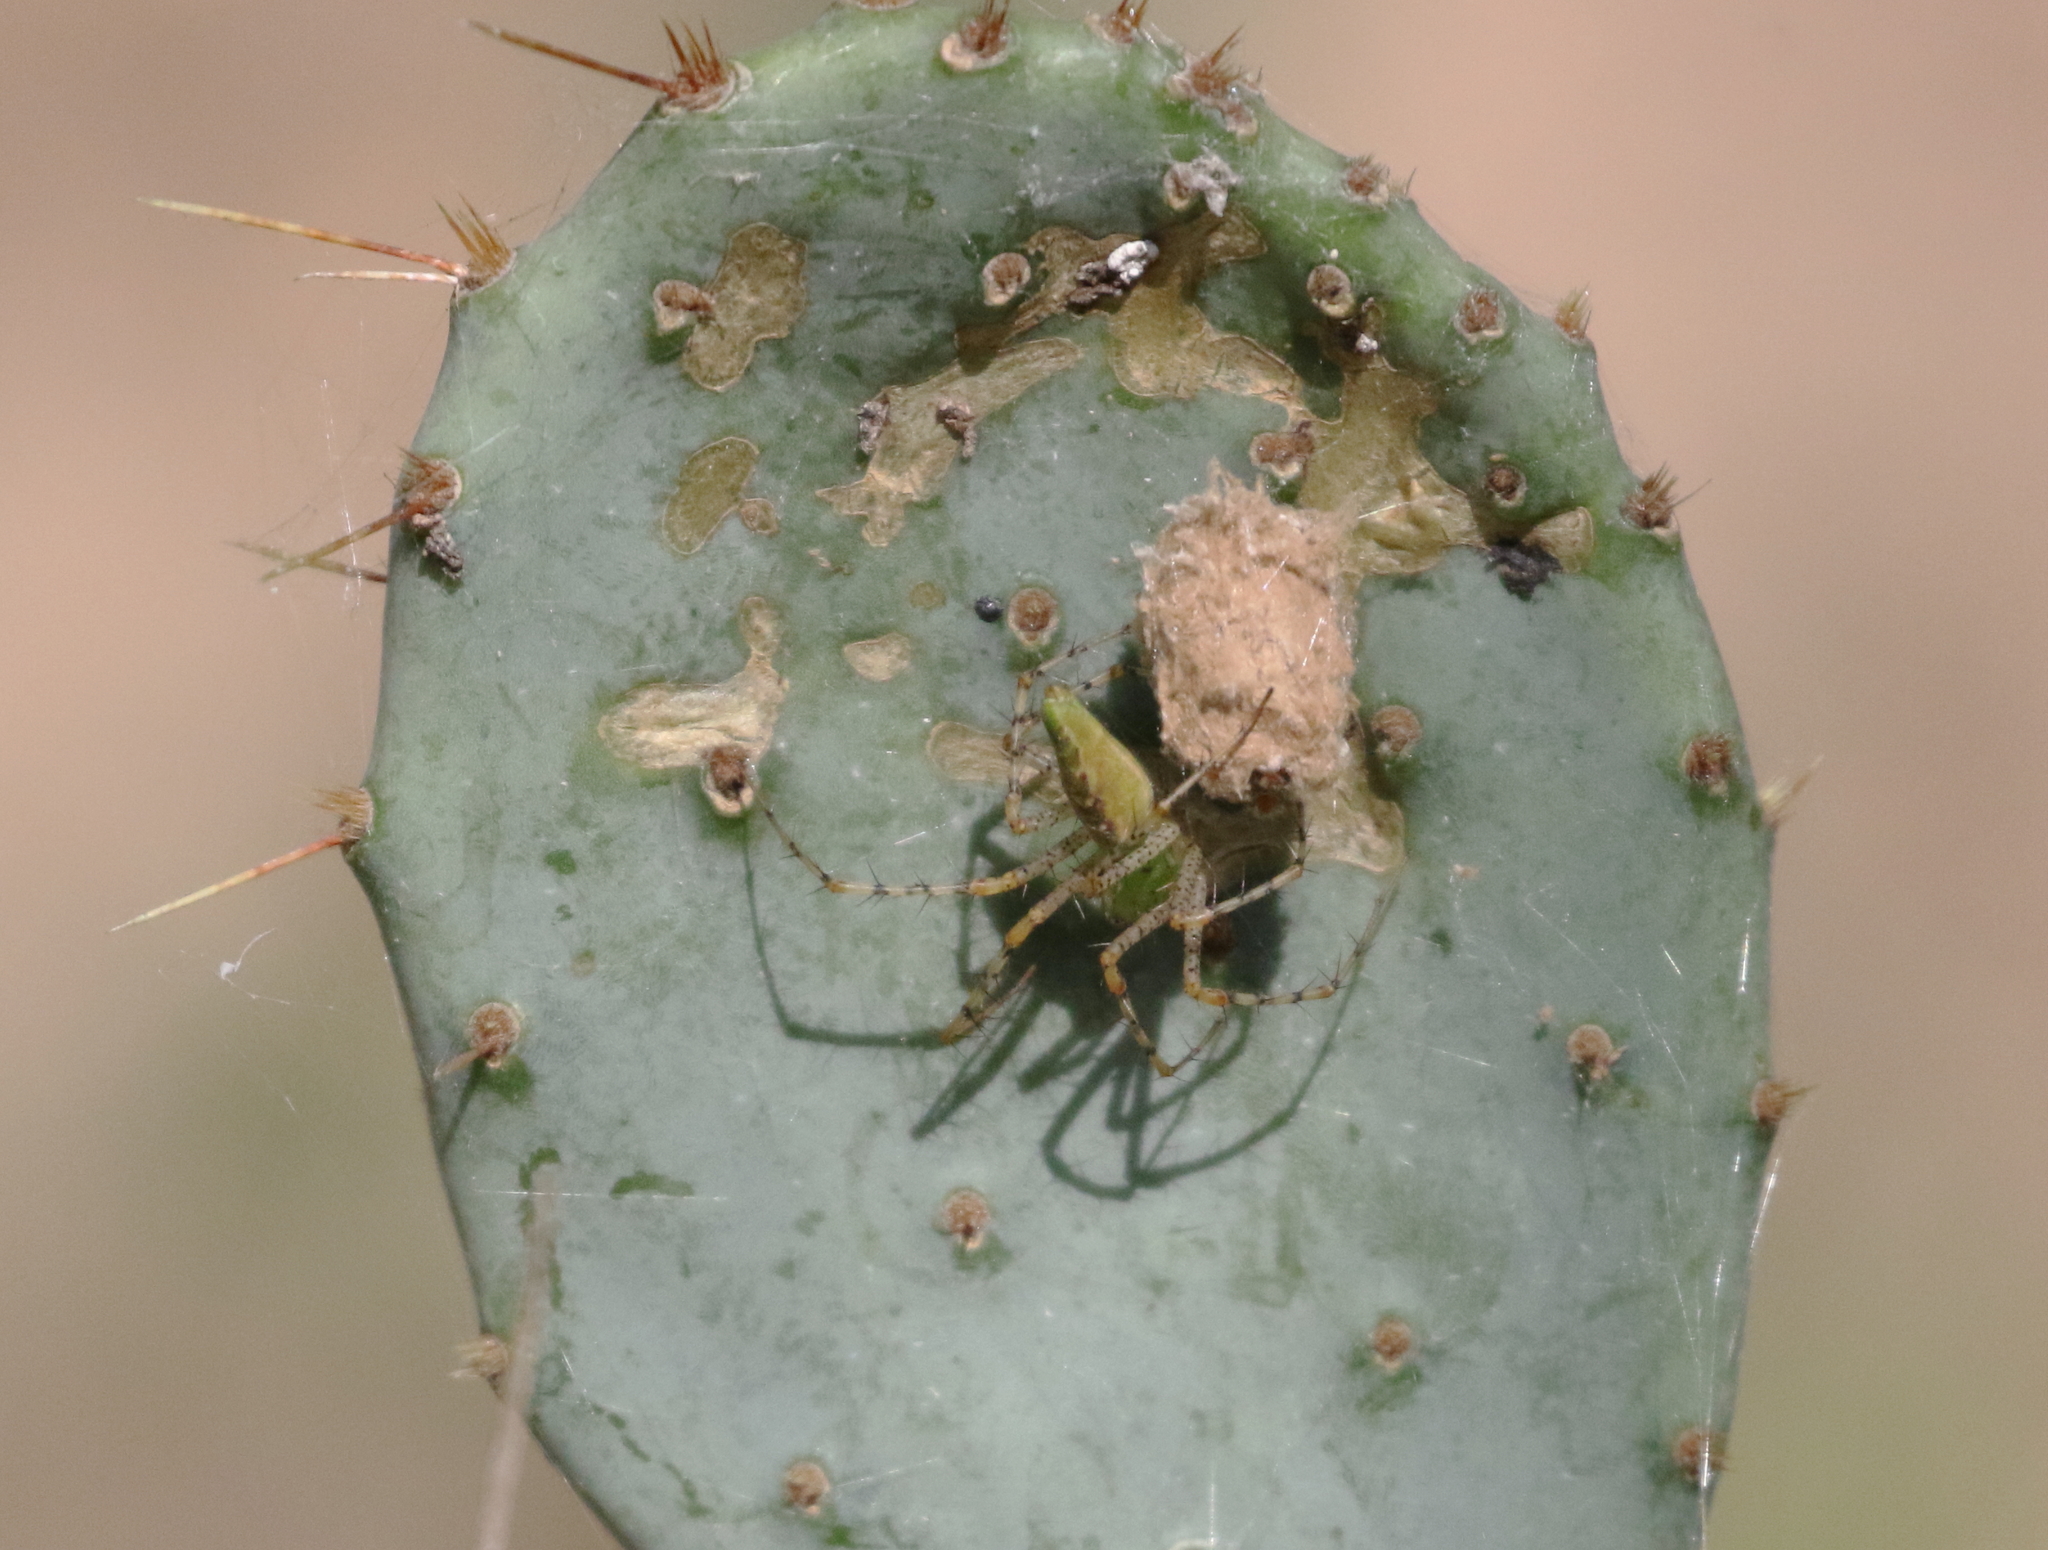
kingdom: Animalia
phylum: Arthropoda
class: Arachnida
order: Araneae
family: Oxyopidae
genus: Peucetia
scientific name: Peucetia viridans
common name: Lynx spiders
